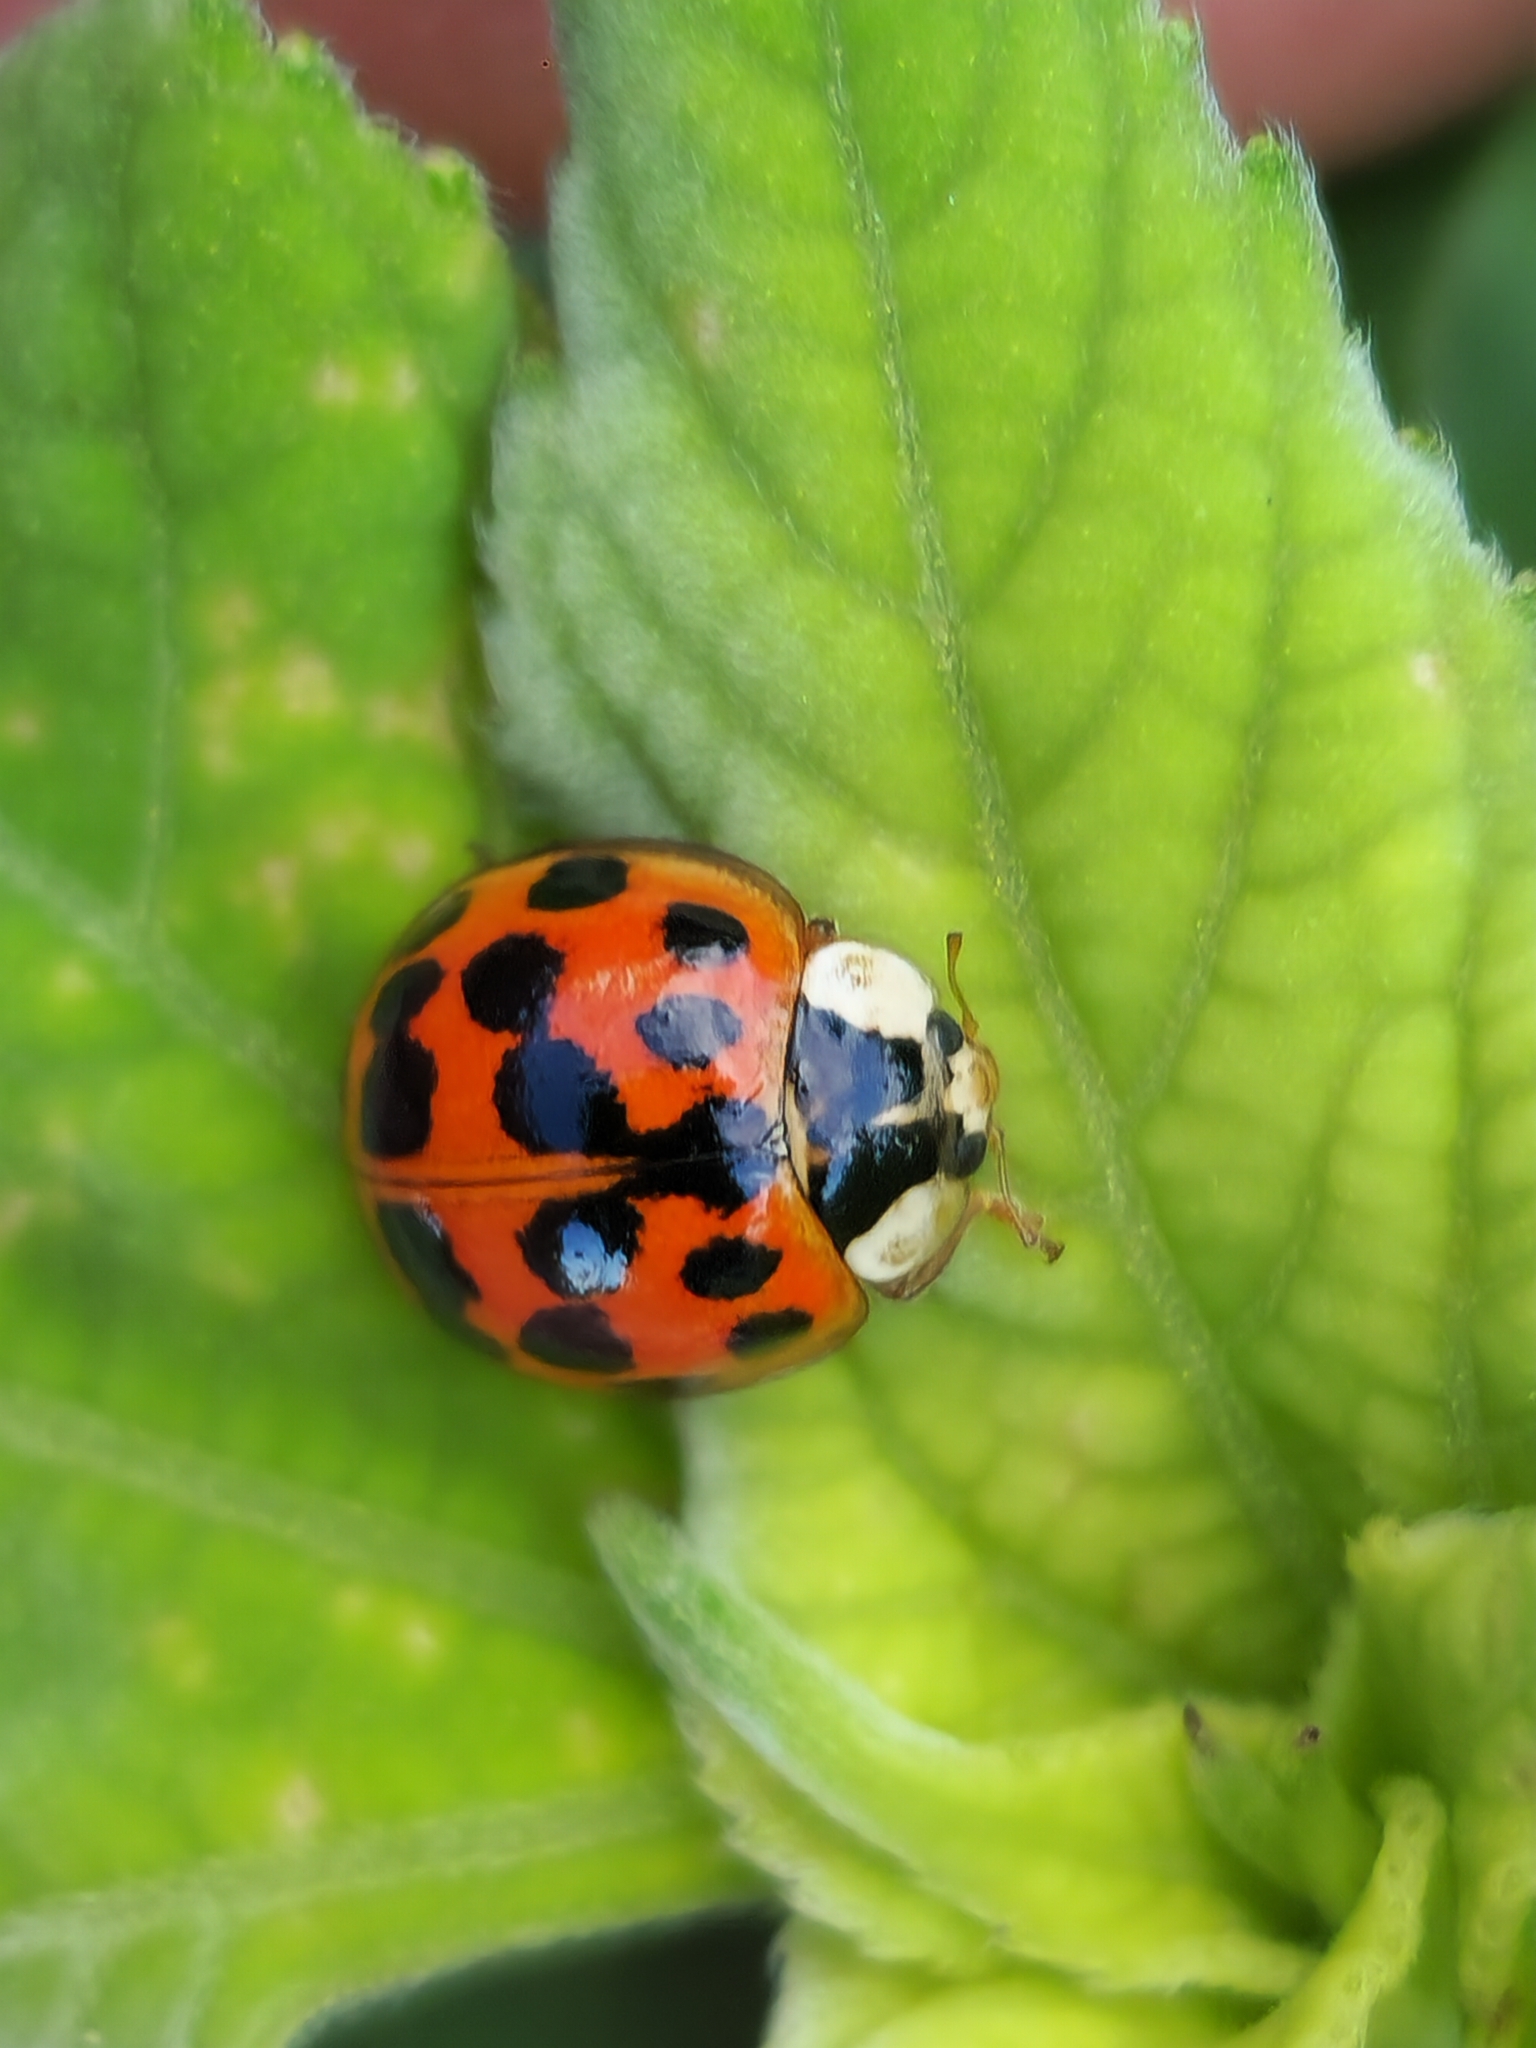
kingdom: Animalia
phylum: Arthropoda
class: Insecta
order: Coleoptera
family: Coccinellidae
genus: Harmonia
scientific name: Harmonia axyridis
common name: Harlequin ladybird
